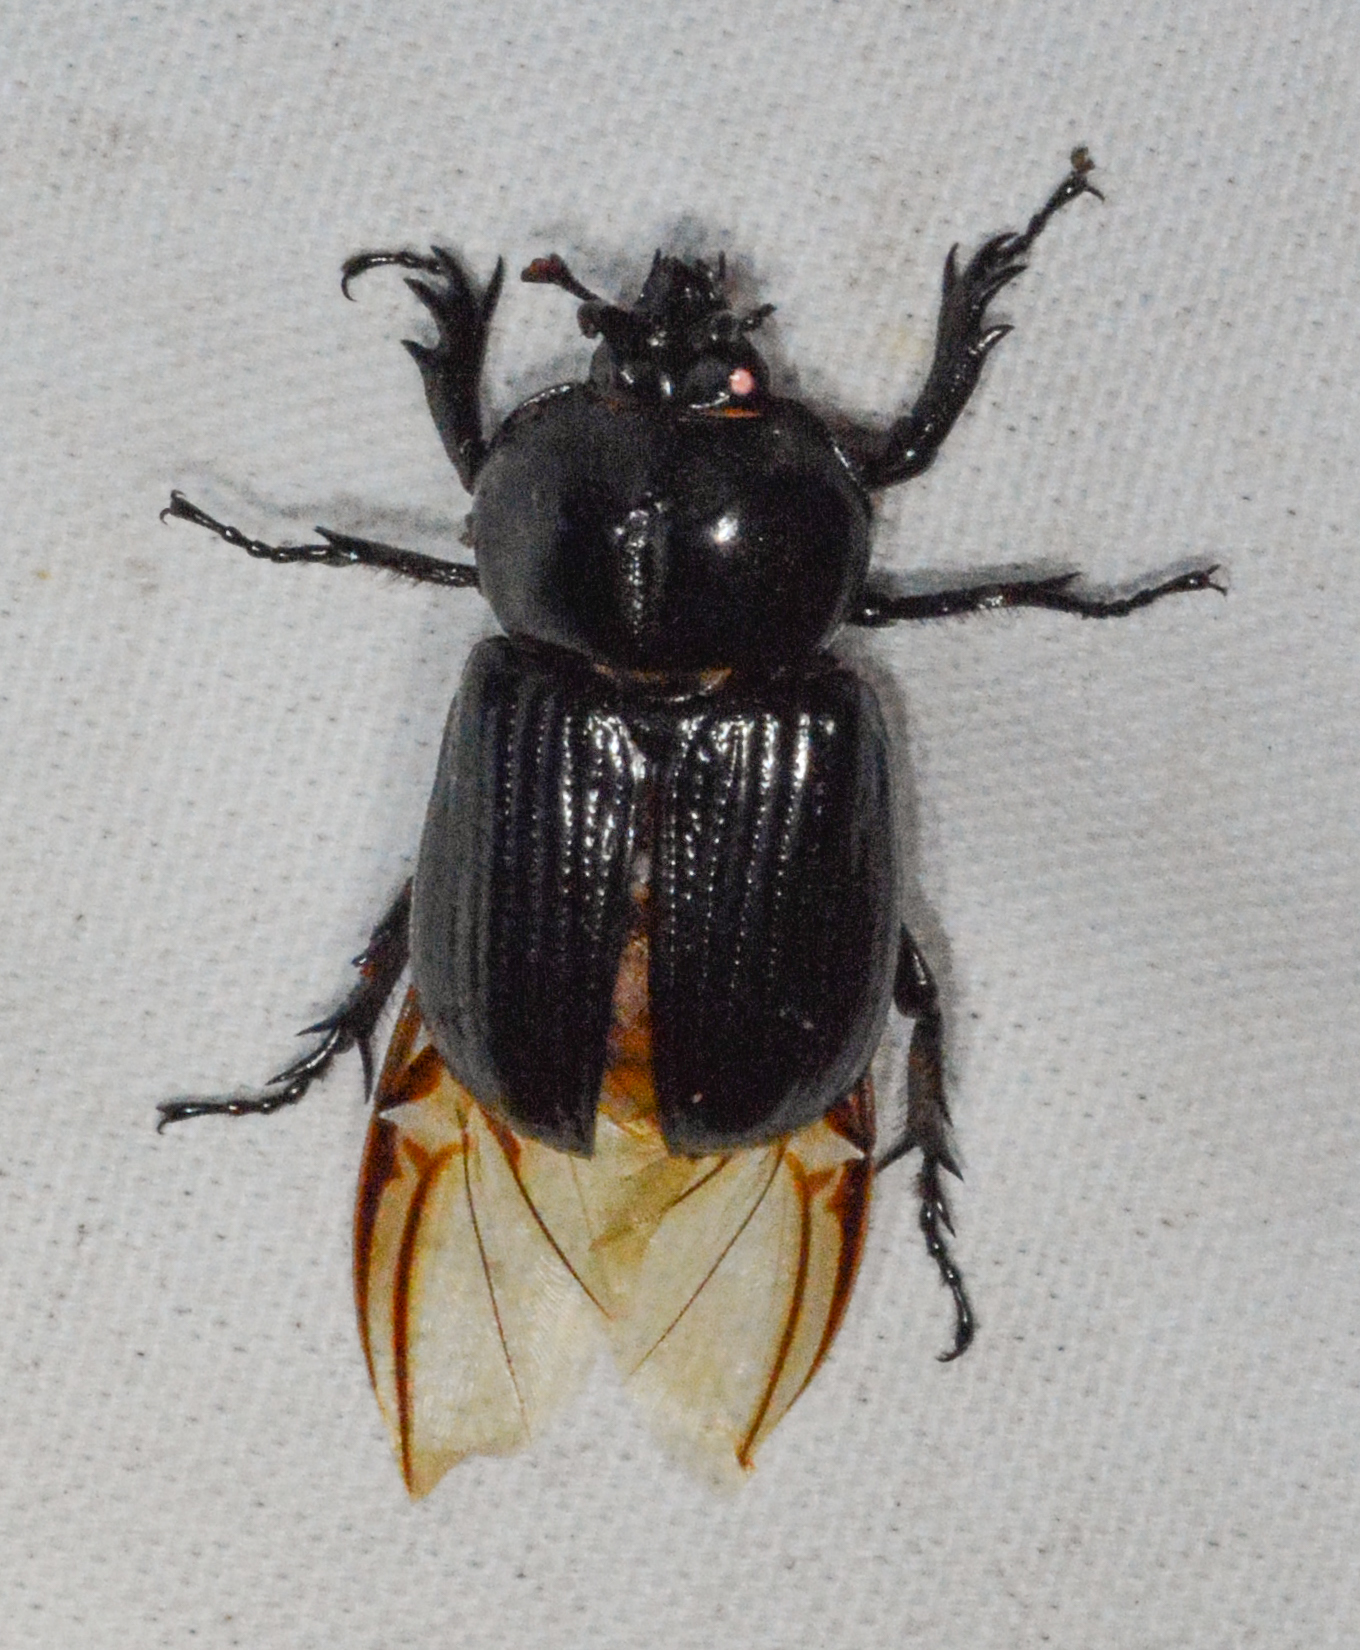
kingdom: Animalia
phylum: Arthropoda
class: Insecta
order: Coleoptera
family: Scarabaeidae
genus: Phileurus
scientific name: Phileurus truncatus
